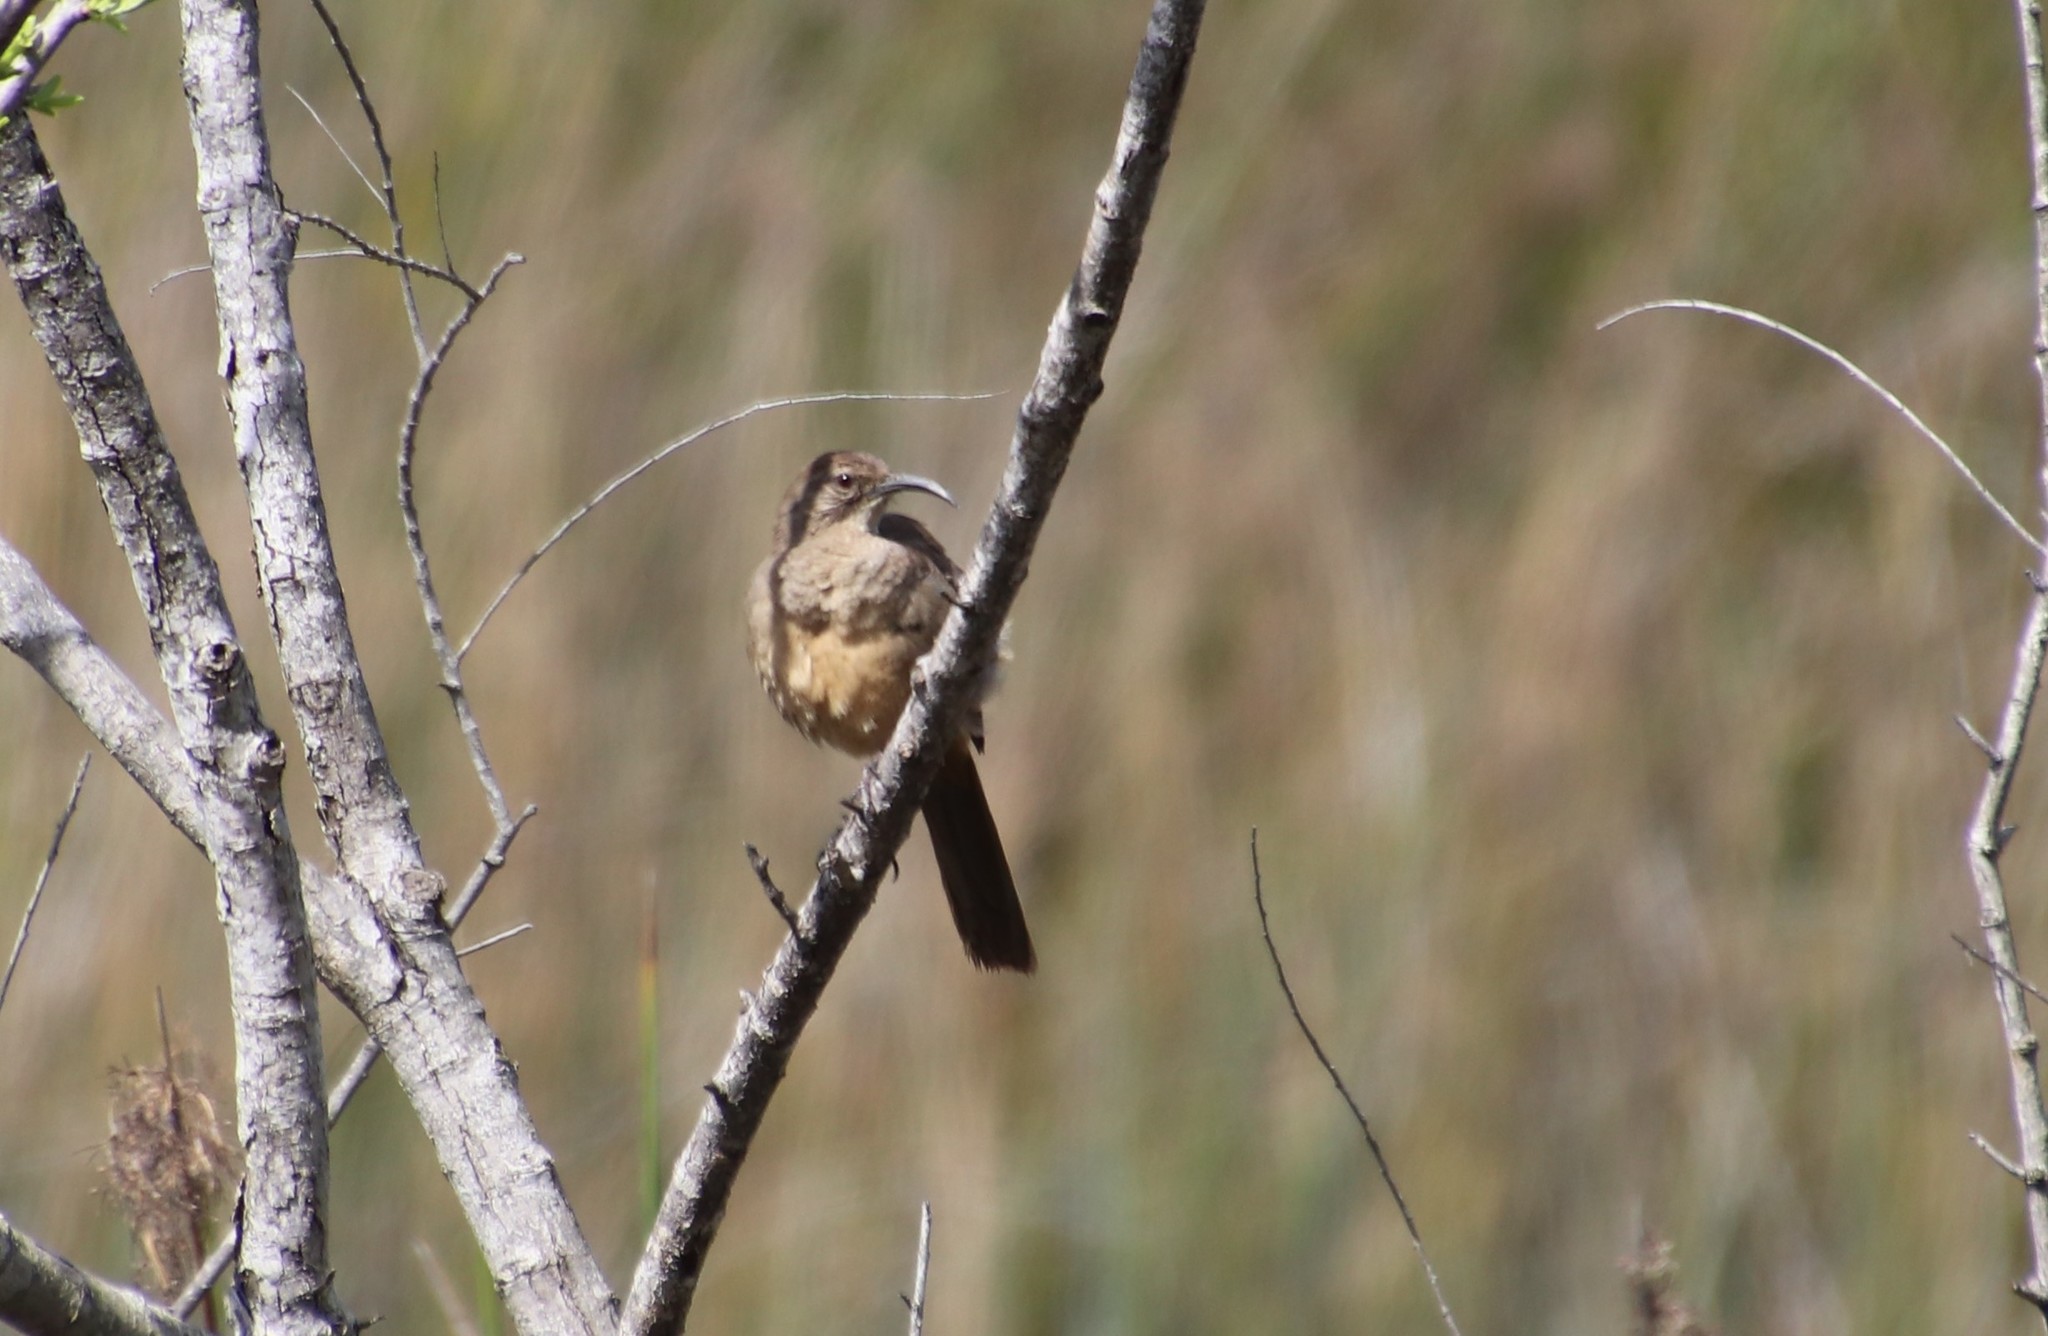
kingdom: Animalia
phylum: Chordata
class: Aves
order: Passeriformes
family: Mimidae
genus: Toxostoma
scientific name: Toxostoma redivivum
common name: California thrasher
